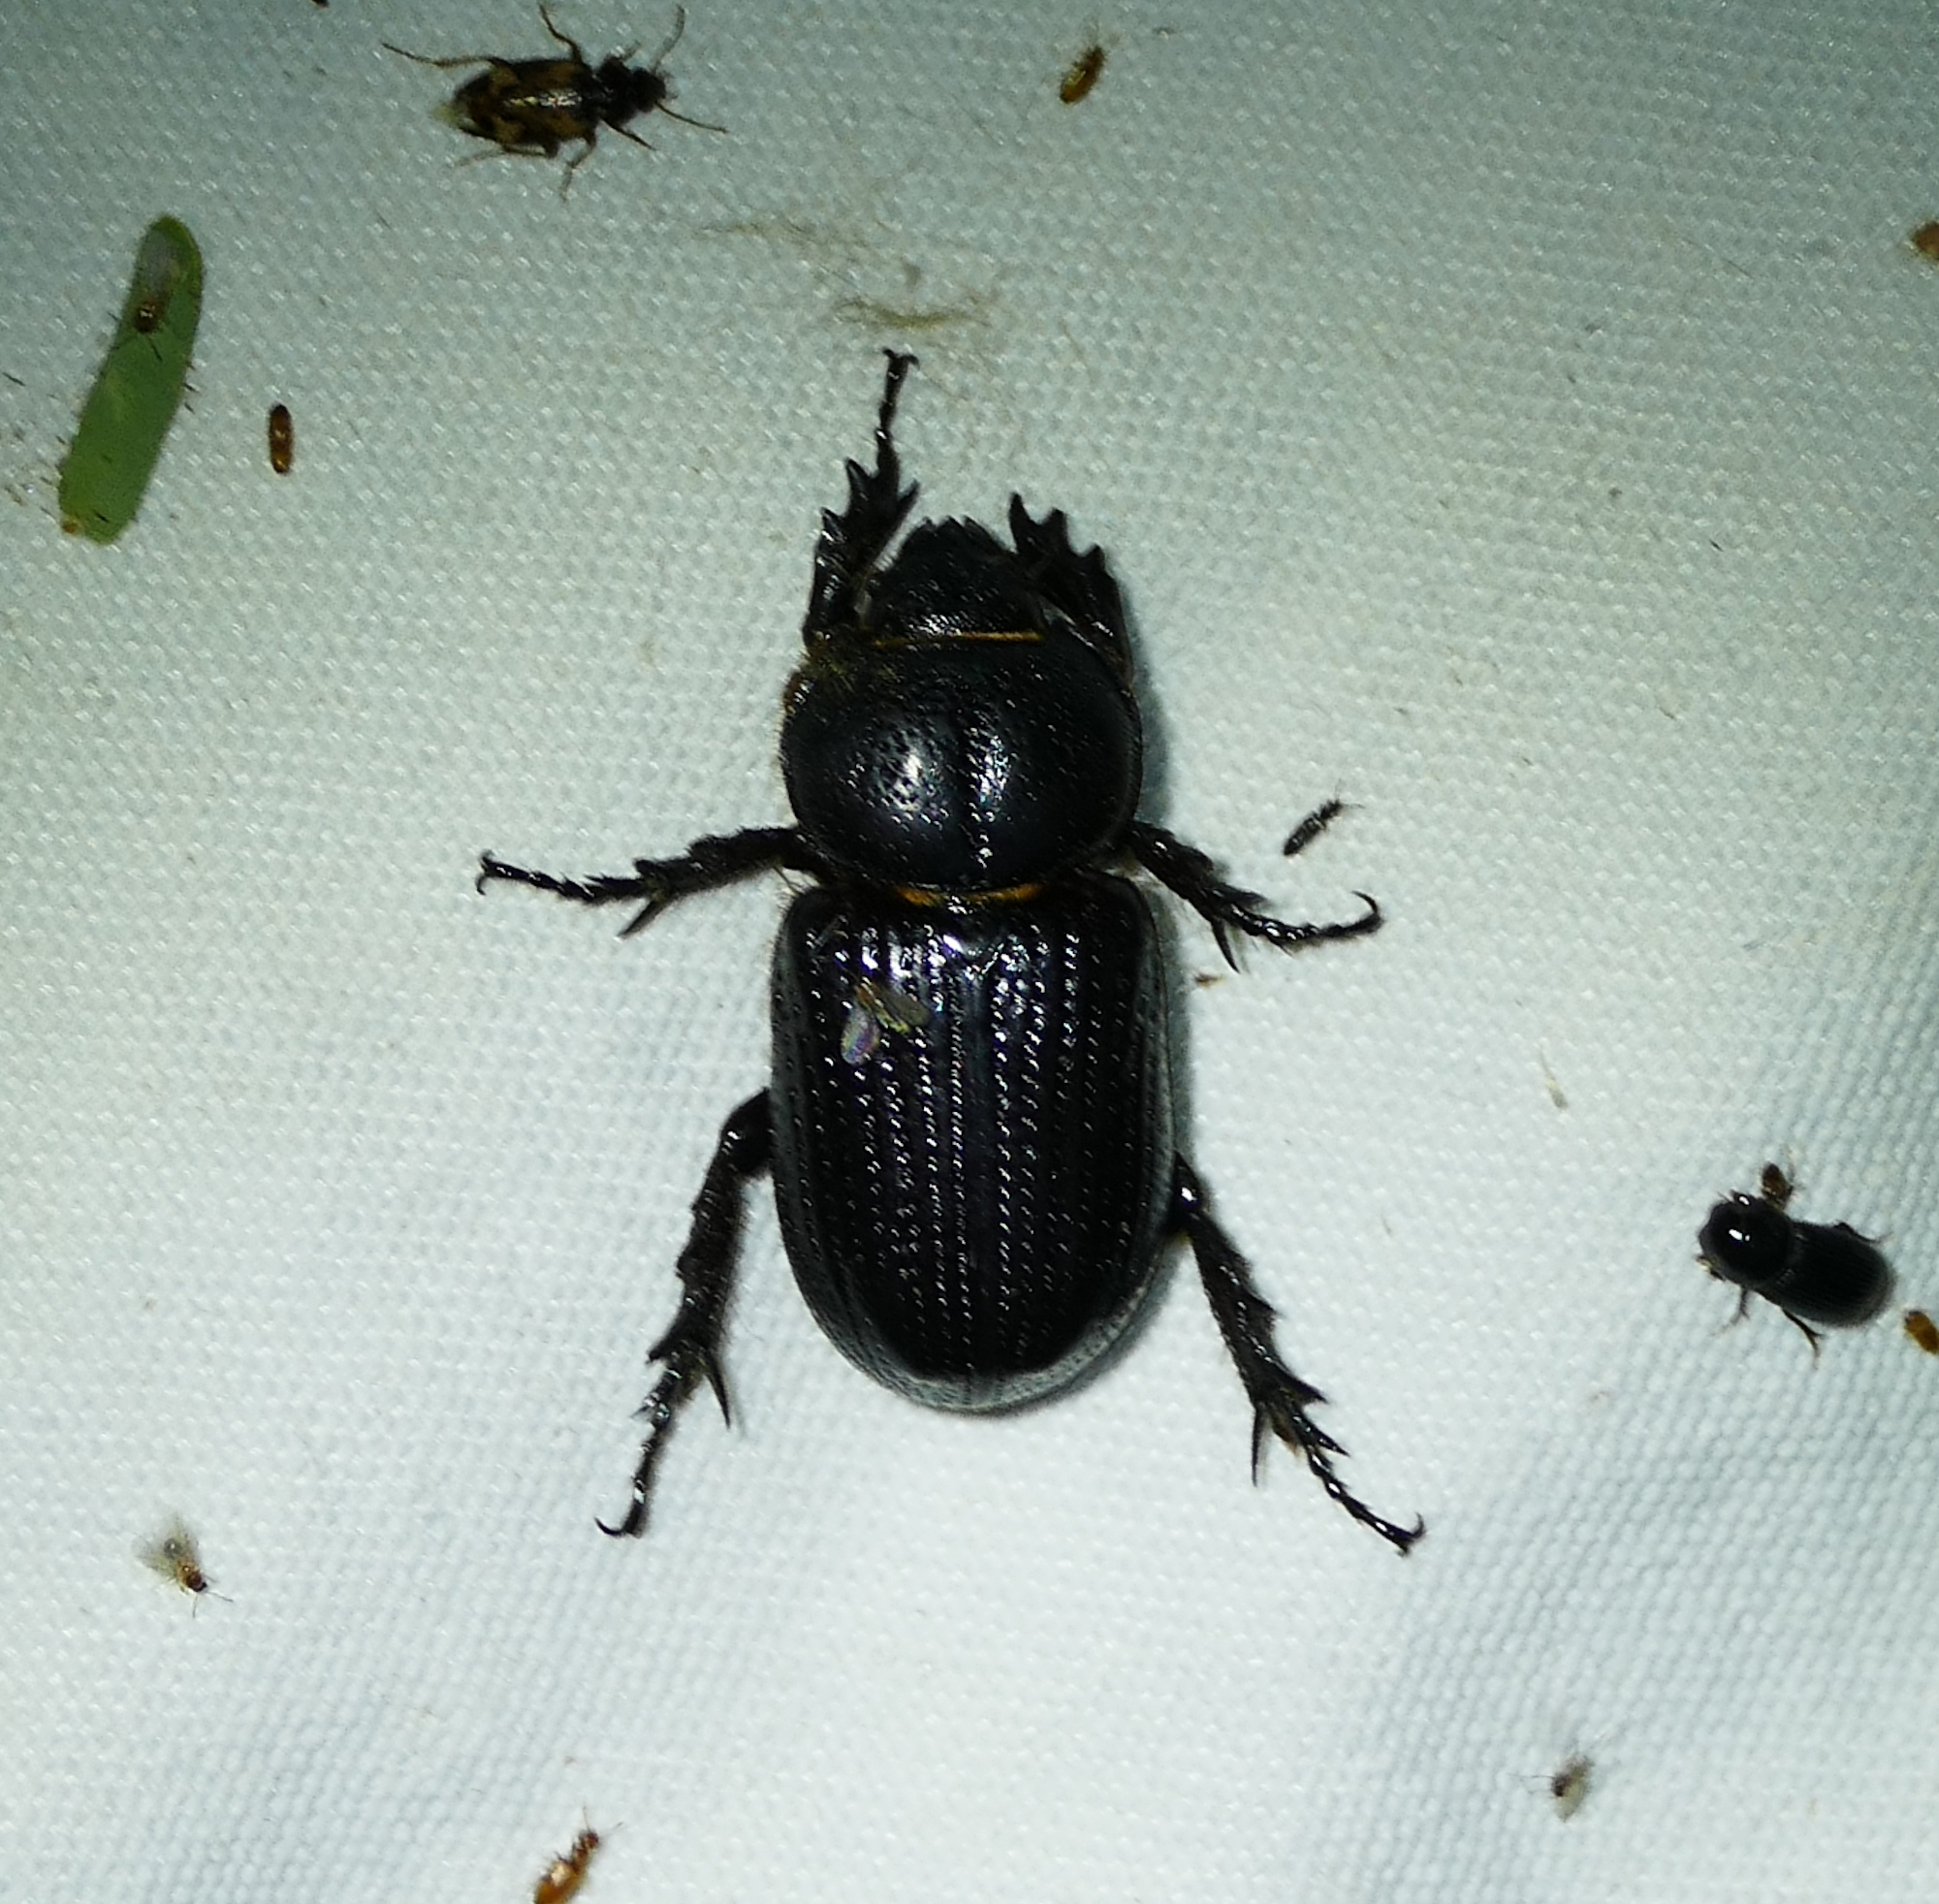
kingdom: Animalia
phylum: Arthropoda
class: Insecta
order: Coleoptera
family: Scarabaeidae
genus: Hemiphileurus
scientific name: Hemiphileurus illatus
